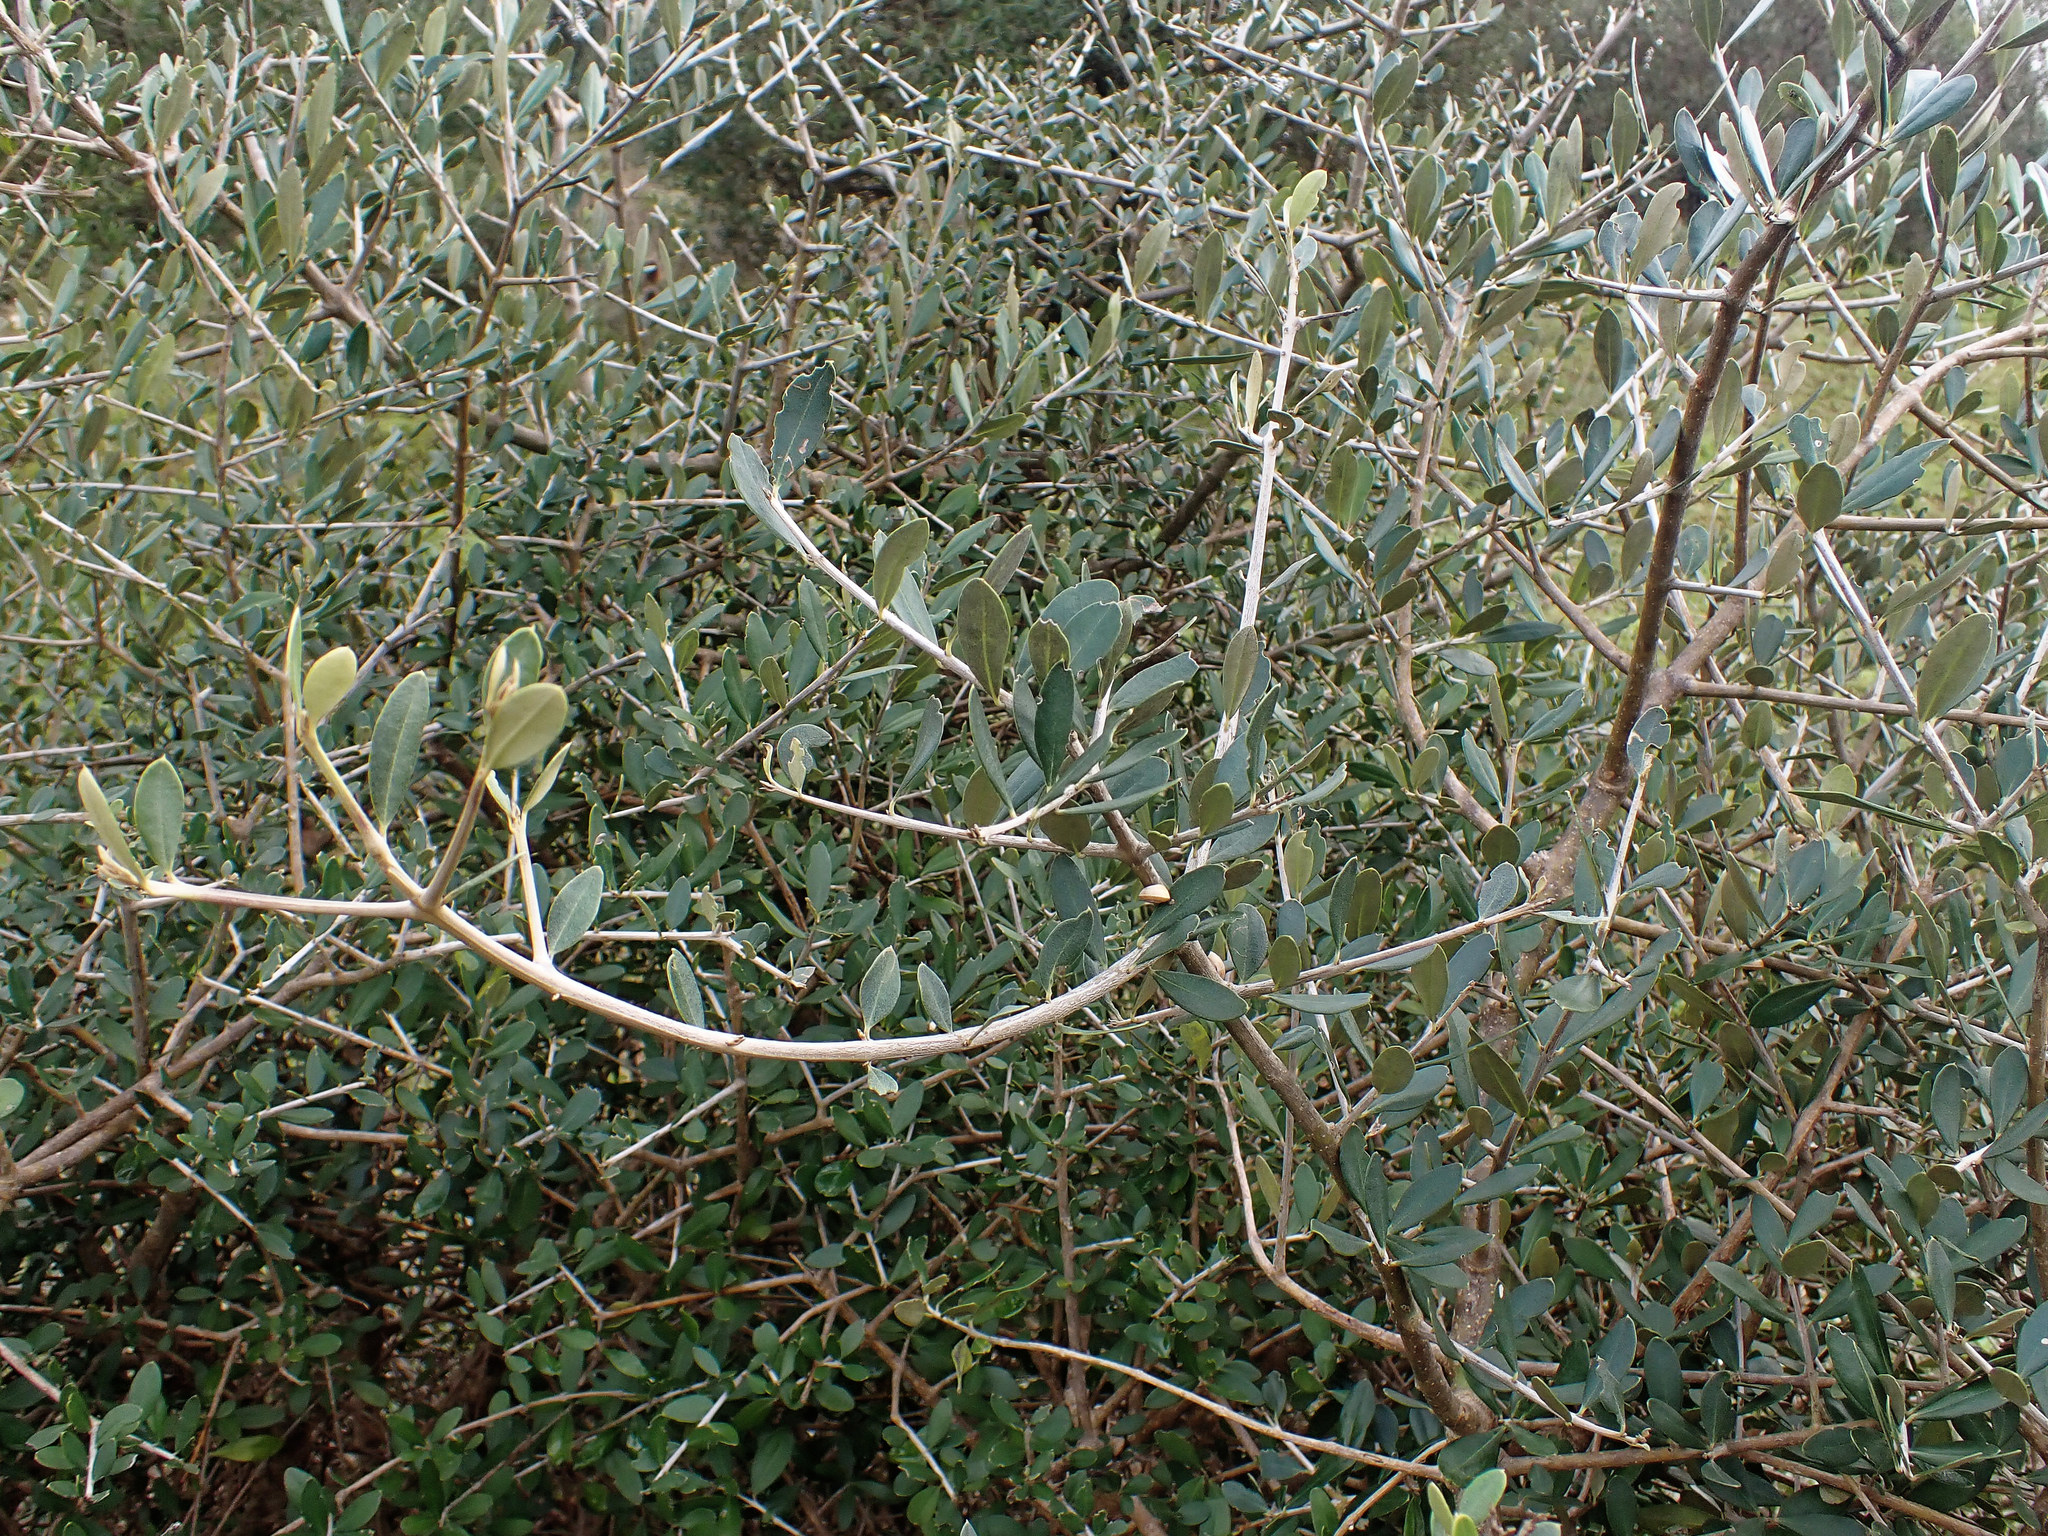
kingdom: Plantae
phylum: Tracheophyta
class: Magnoliopsida
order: Lamiales
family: Oleaceae
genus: Olea
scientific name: Olea europaea
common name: Olive
